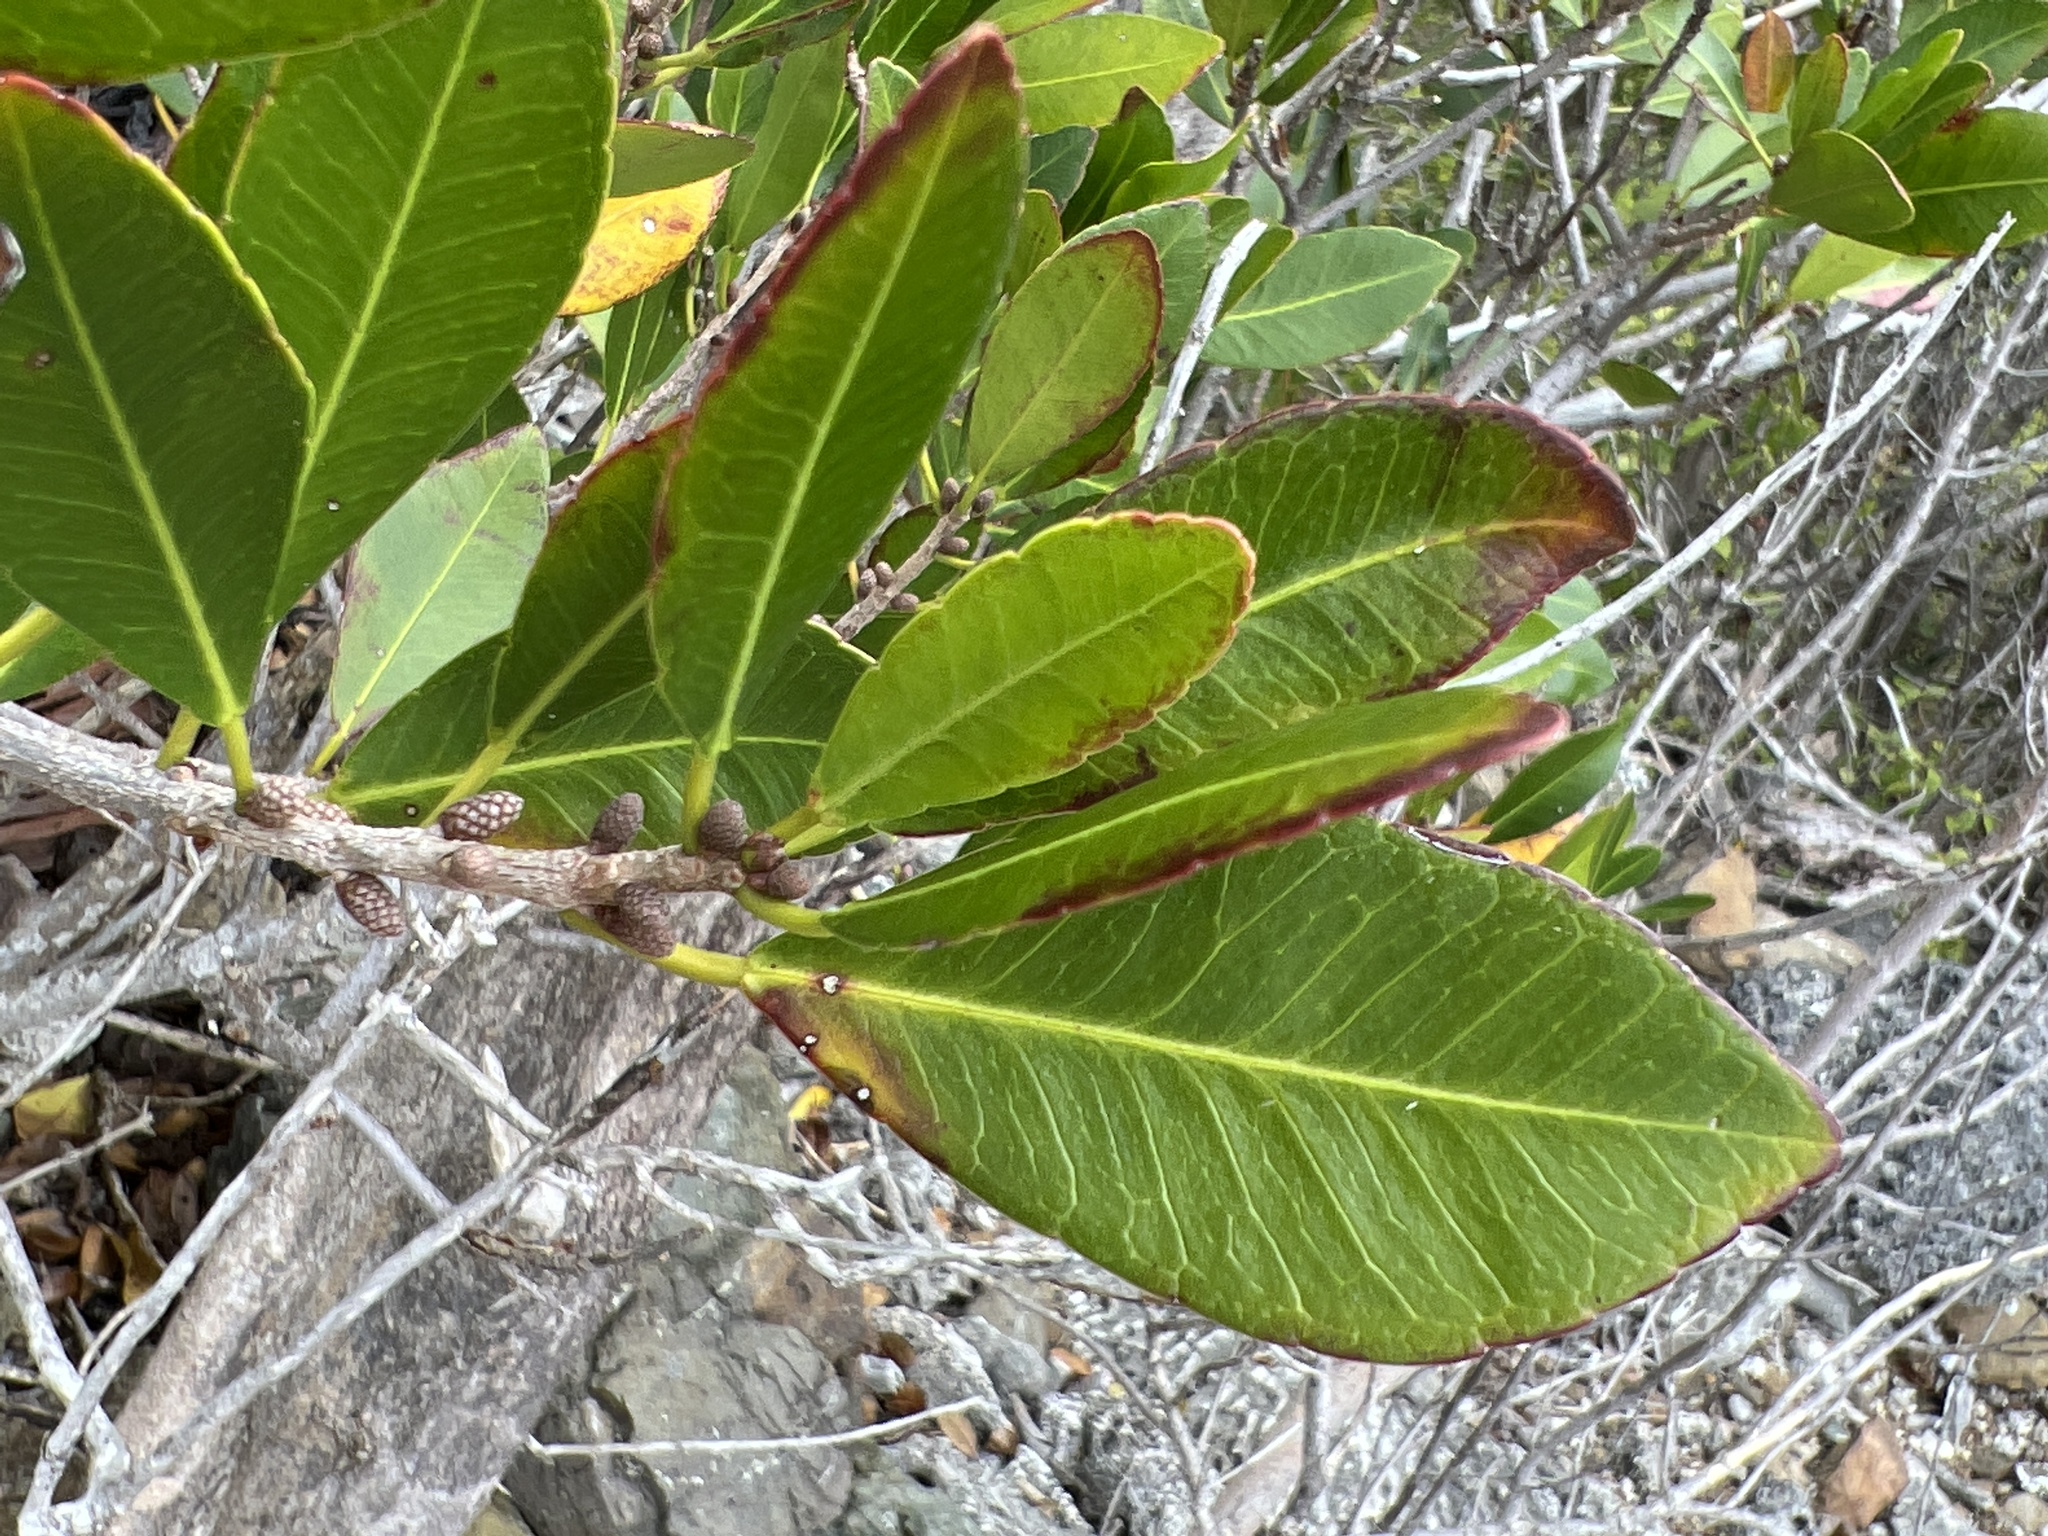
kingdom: Plantae
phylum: Tracheophyta
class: Magnoliopsida
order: Malpighiales
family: Euphorbiaceae
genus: Gymnanthes
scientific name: Gymnanthes lucida
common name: Oysterwood
